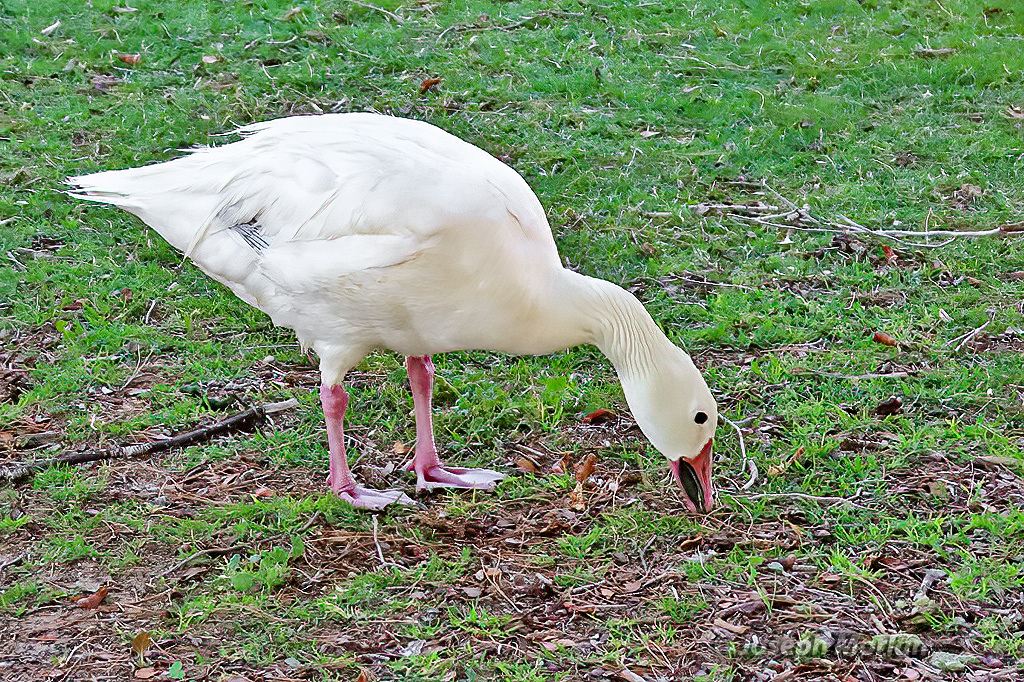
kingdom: Animalia
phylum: Chordata
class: Aves
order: Anseriformes
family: Anatidae
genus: Anser
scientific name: Anser caerulescens
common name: Snow goose
